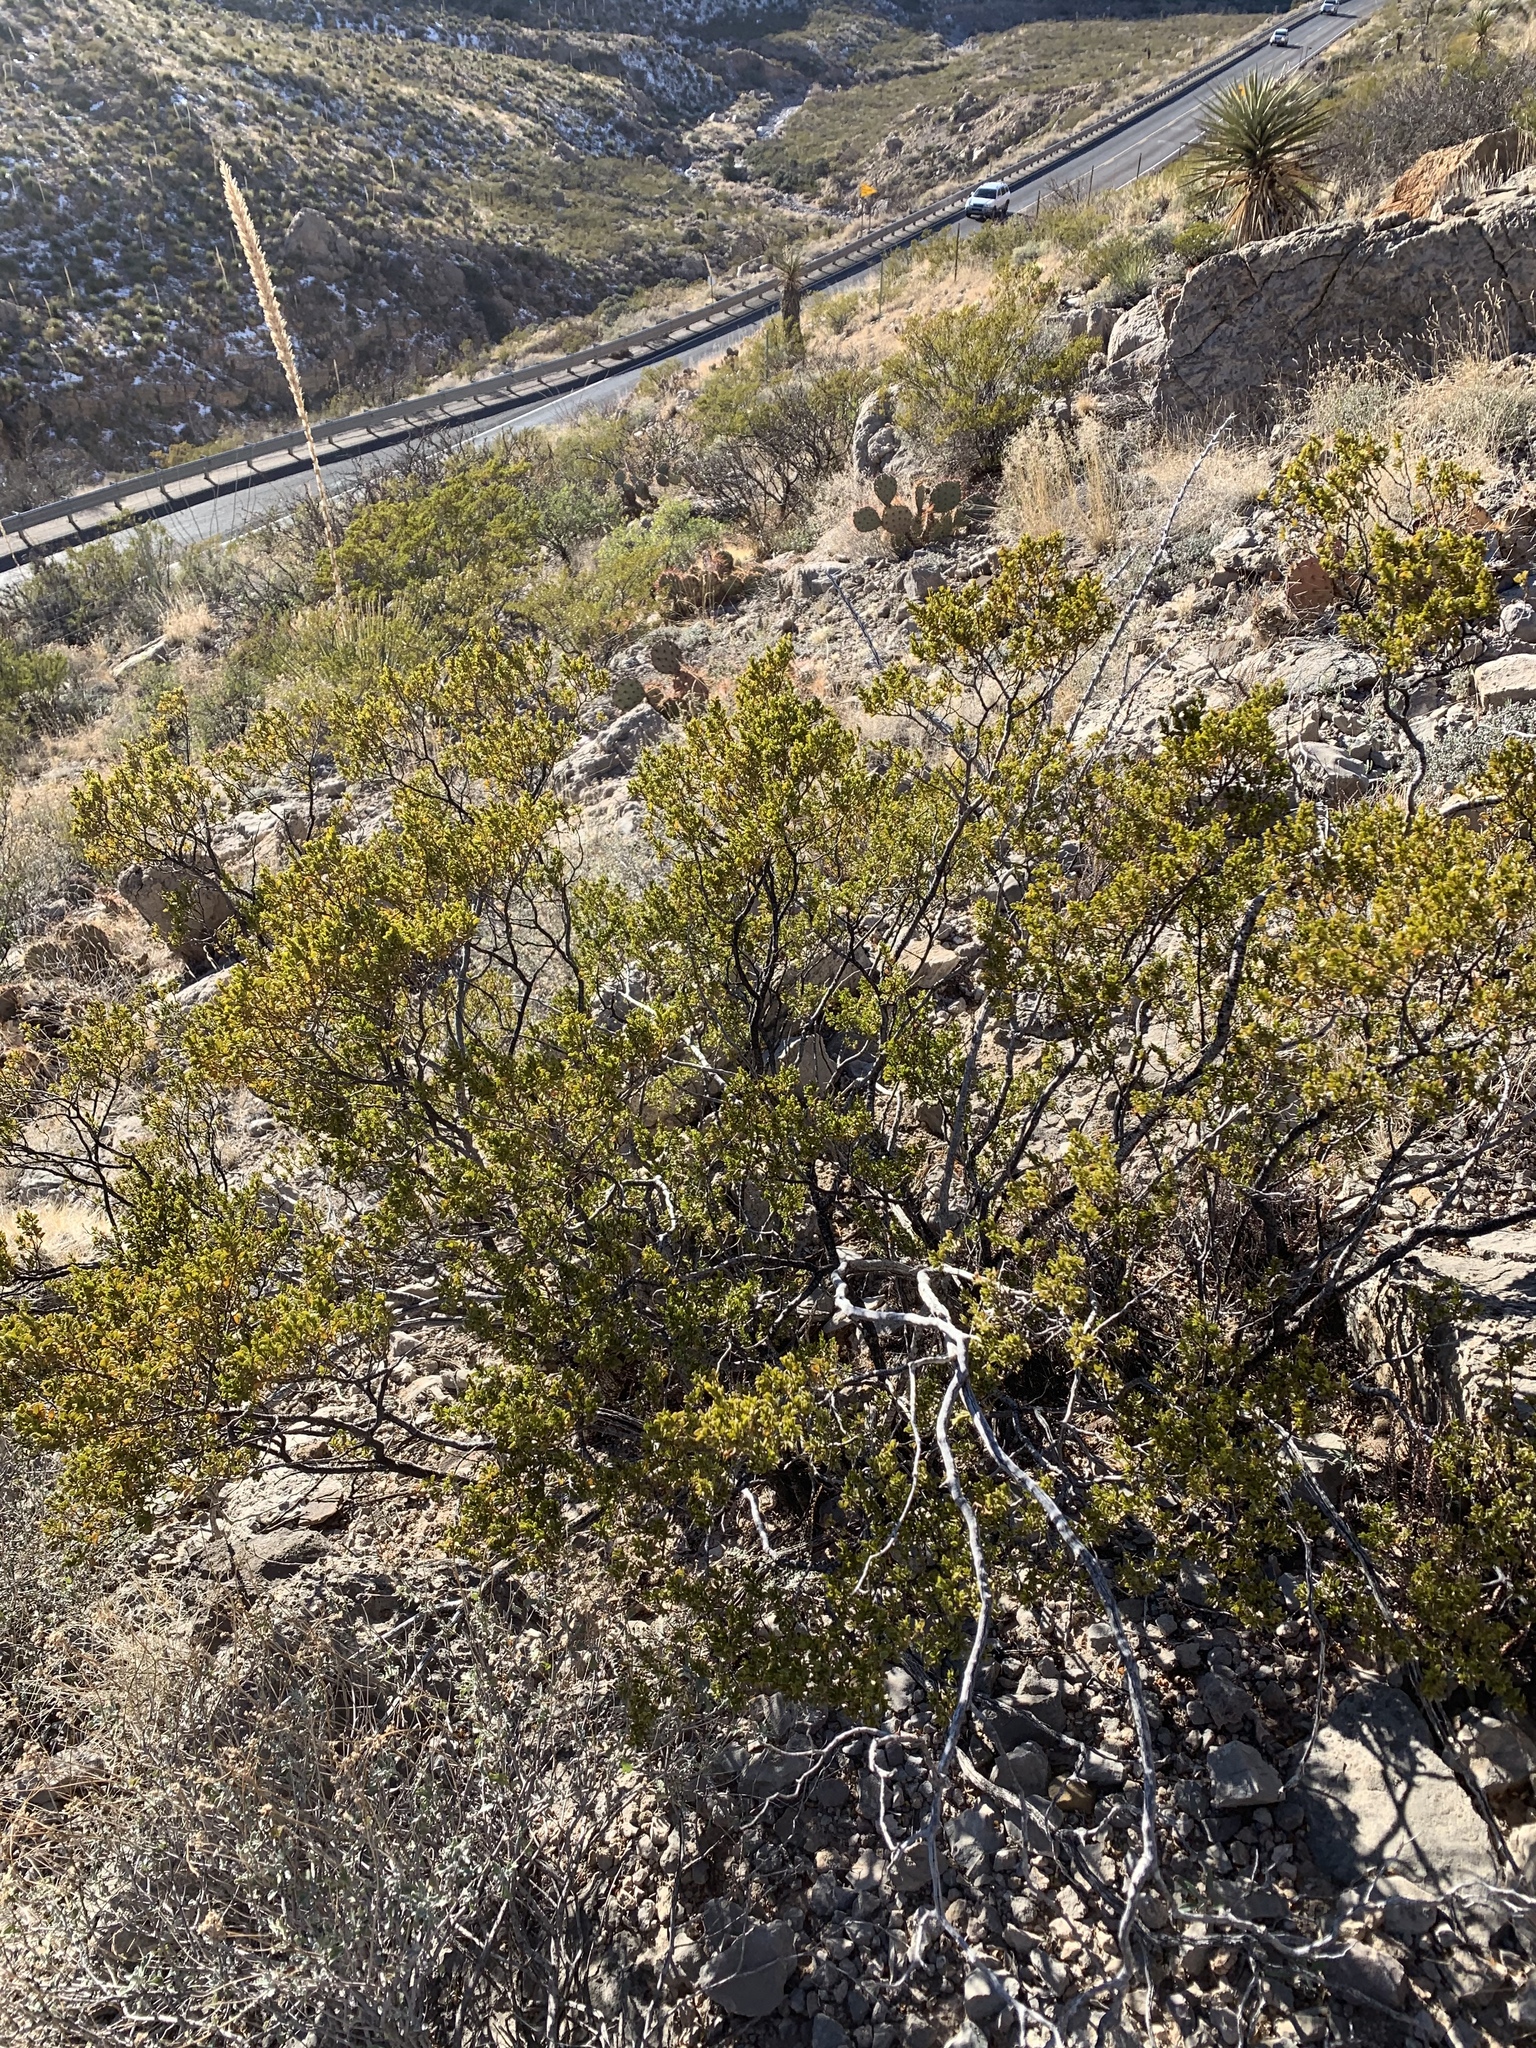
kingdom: Plantae
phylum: Tracheophyta
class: Magnoliopsida
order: Zygophyllales
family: Zygophyllaceae
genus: Larrea
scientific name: Larrea tridentata
